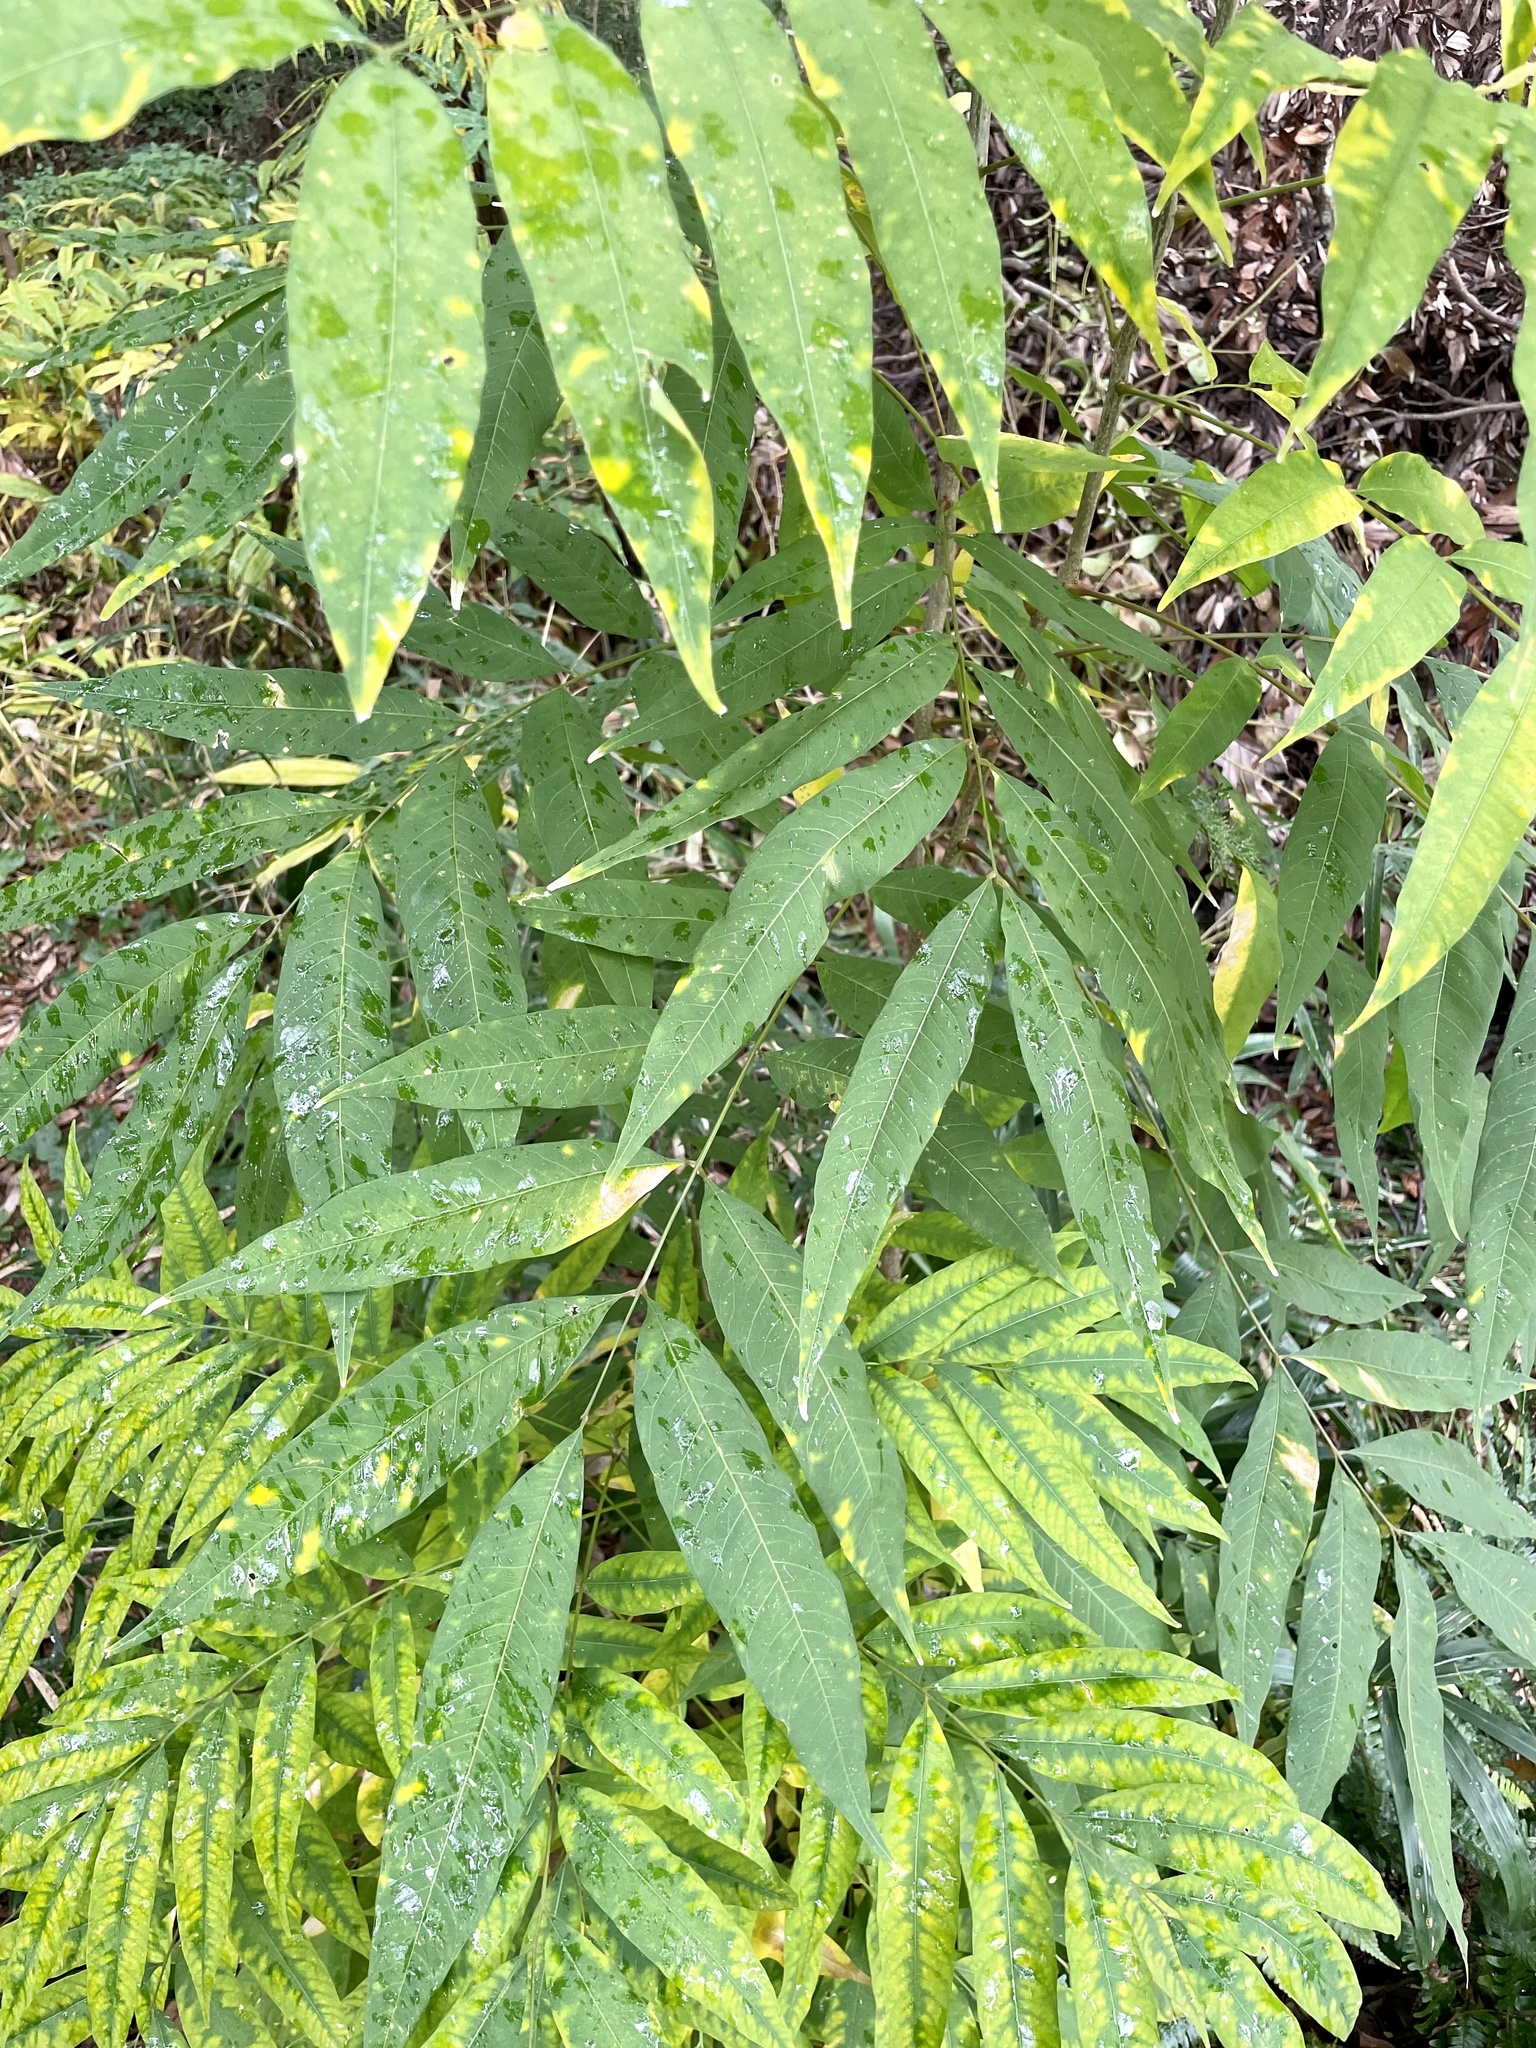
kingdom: Plantae
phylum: Tracheophyta
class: Magnoliopsida
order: Sapindales
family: Sapindaceae
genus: Sapindus
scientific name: Sapindus mukorossi
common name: Chinese soapberry
